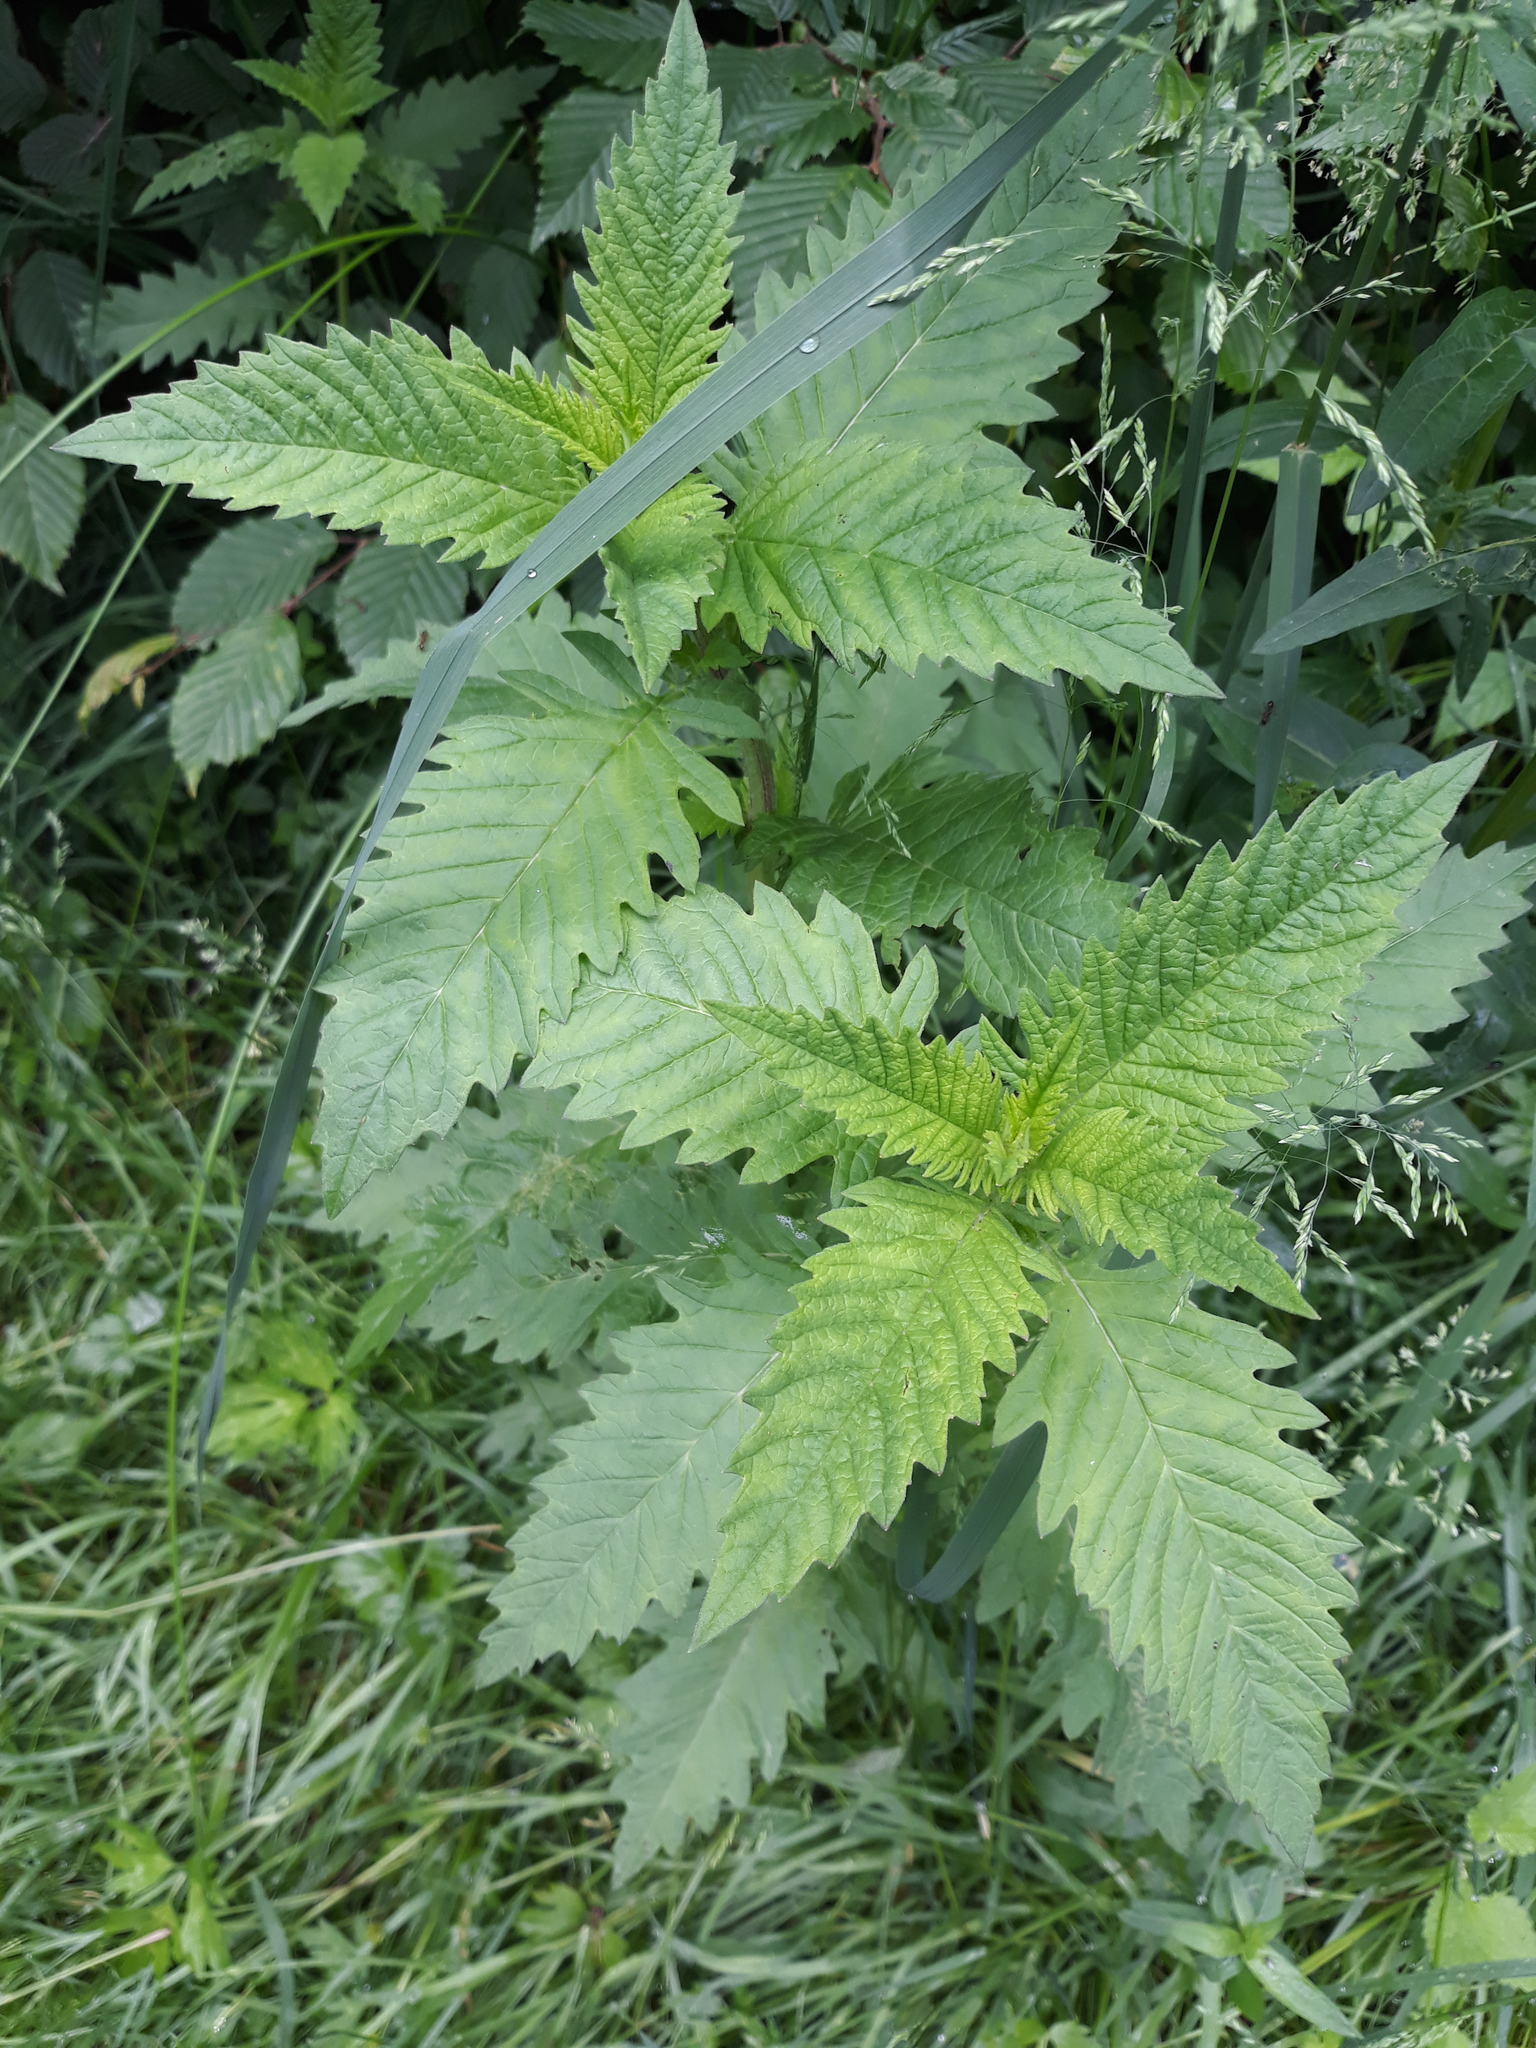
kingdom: Plantae
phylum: Tracheophyta
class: Magnoliopsida
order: Lamiales
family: Lamiaceae
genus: Lycopus
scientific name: Lycopus europaeus
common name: European bugleweed
